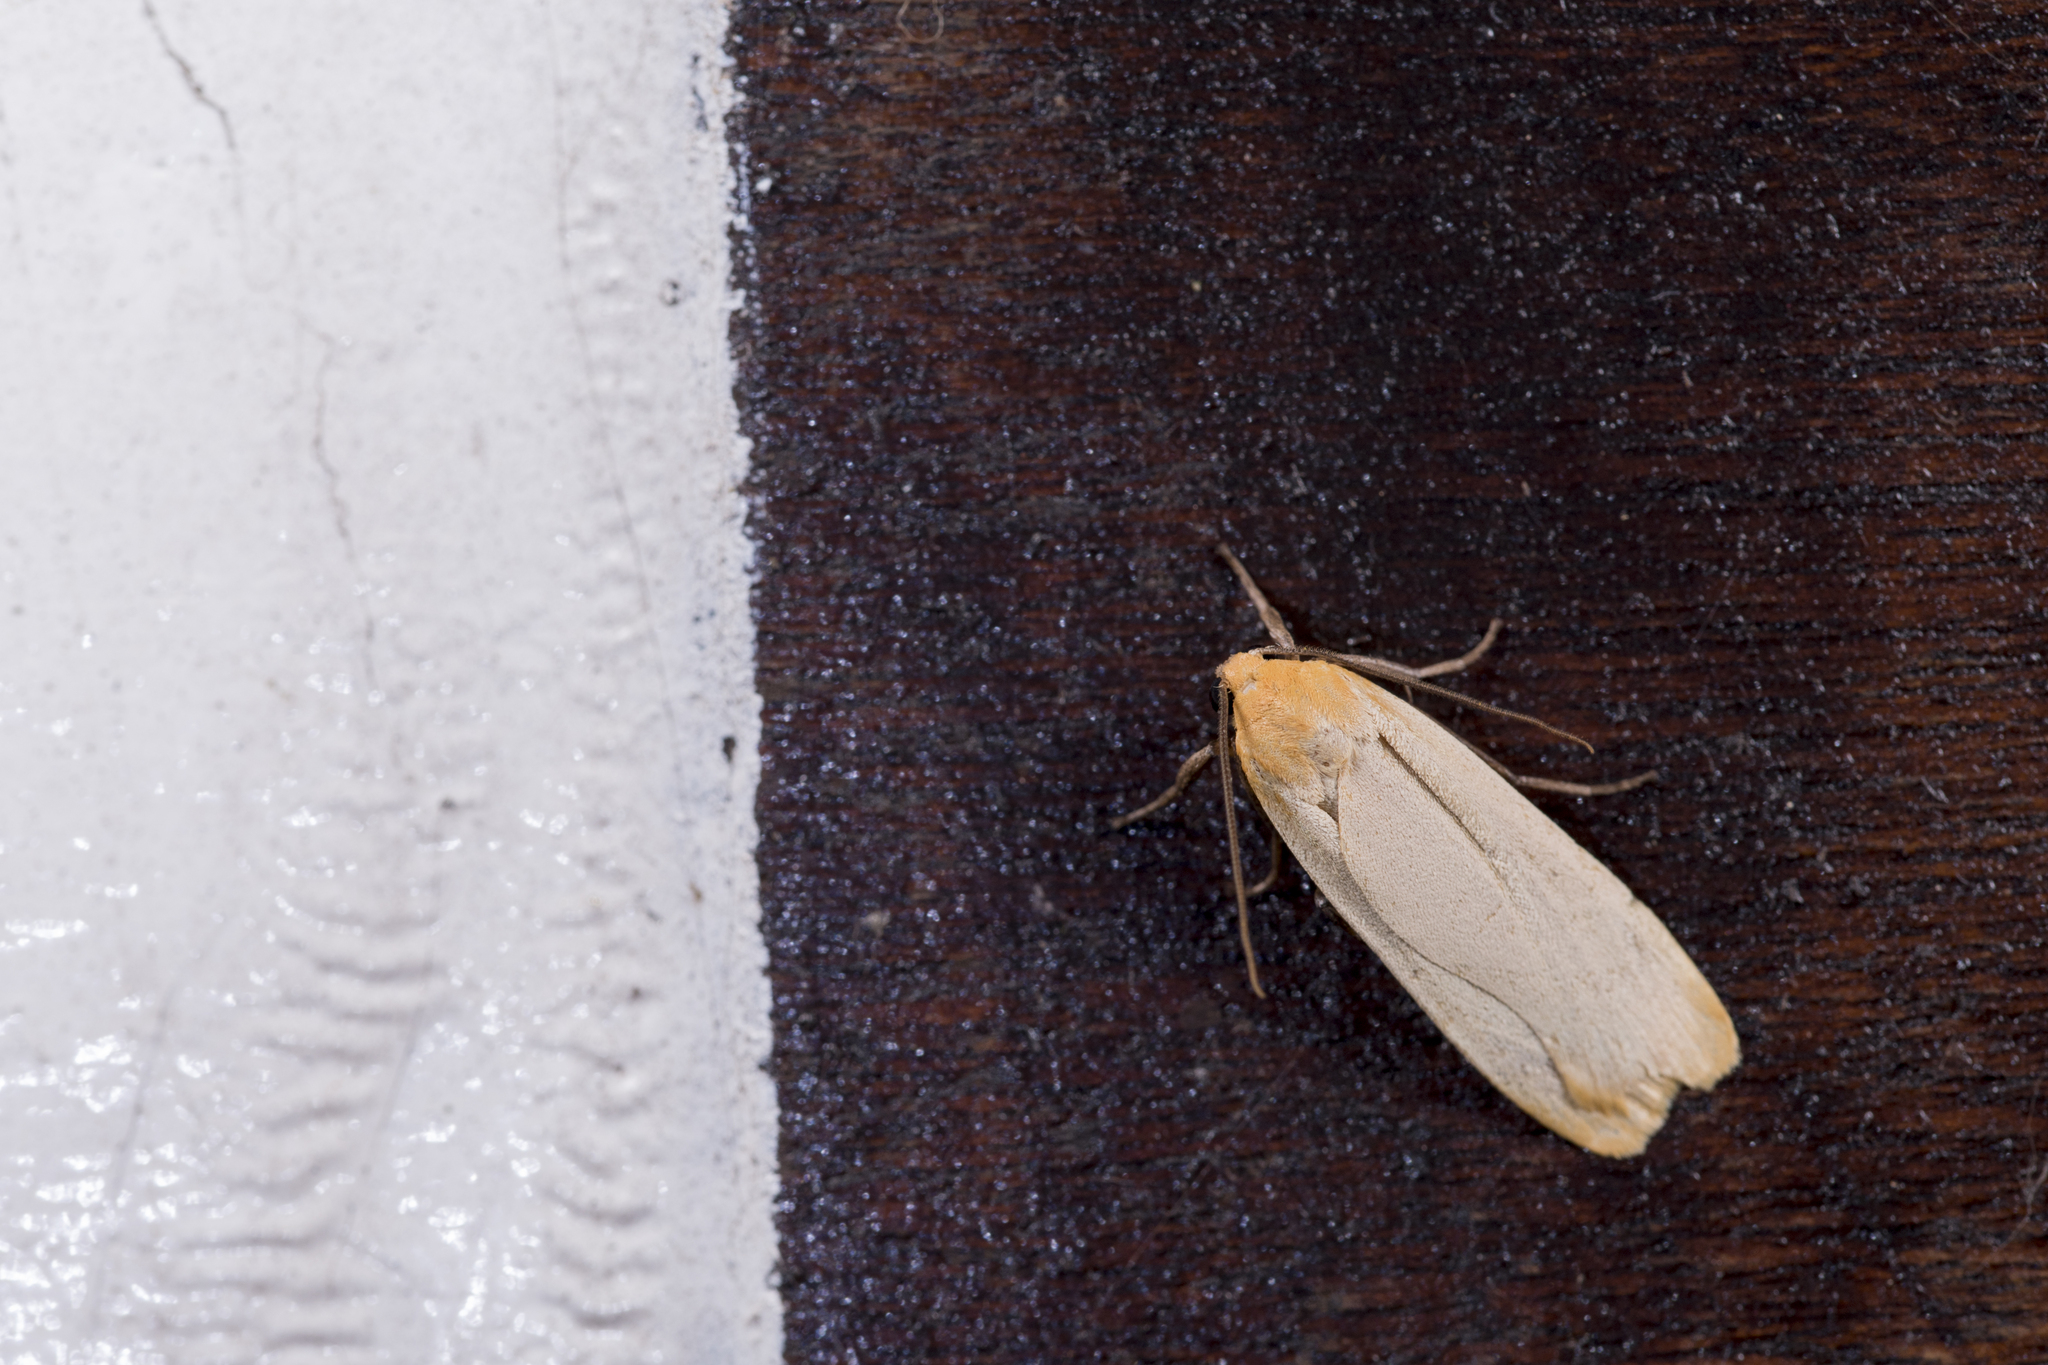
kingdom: Animalia
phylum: Arthropoda
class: Insecta
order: Lepidoptera
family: Erebidae
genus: Katha
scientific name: Katha emberifera
